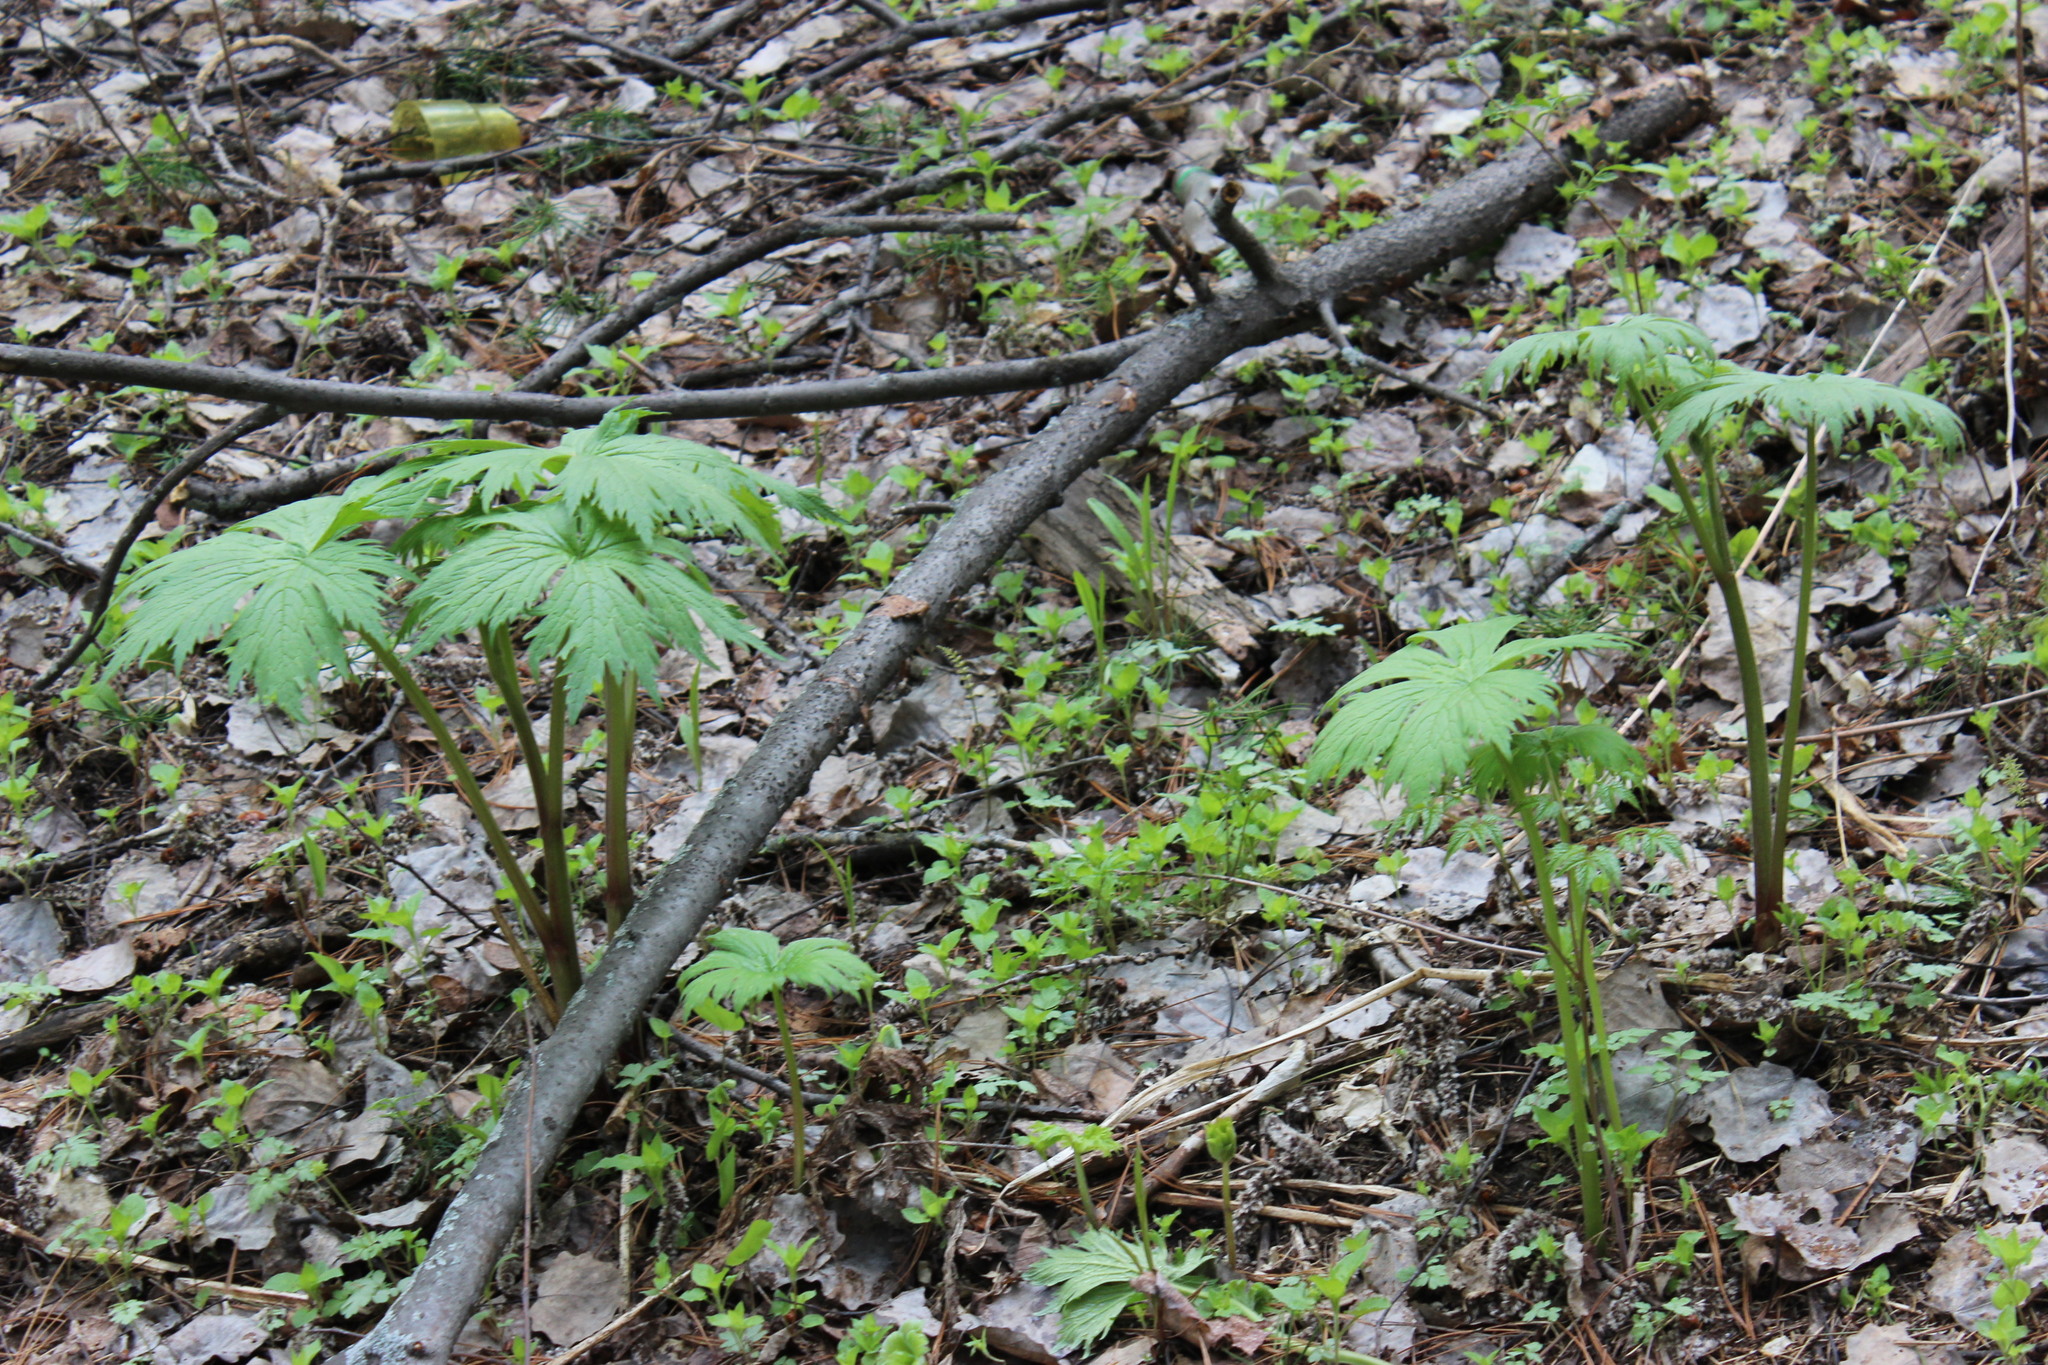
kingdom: Plantae
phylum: Tracheophyta
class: Magnoliopsida
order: Ranunculales
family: Ranunculaceae
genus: Aconitum
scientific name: Aconitum septentrionale
